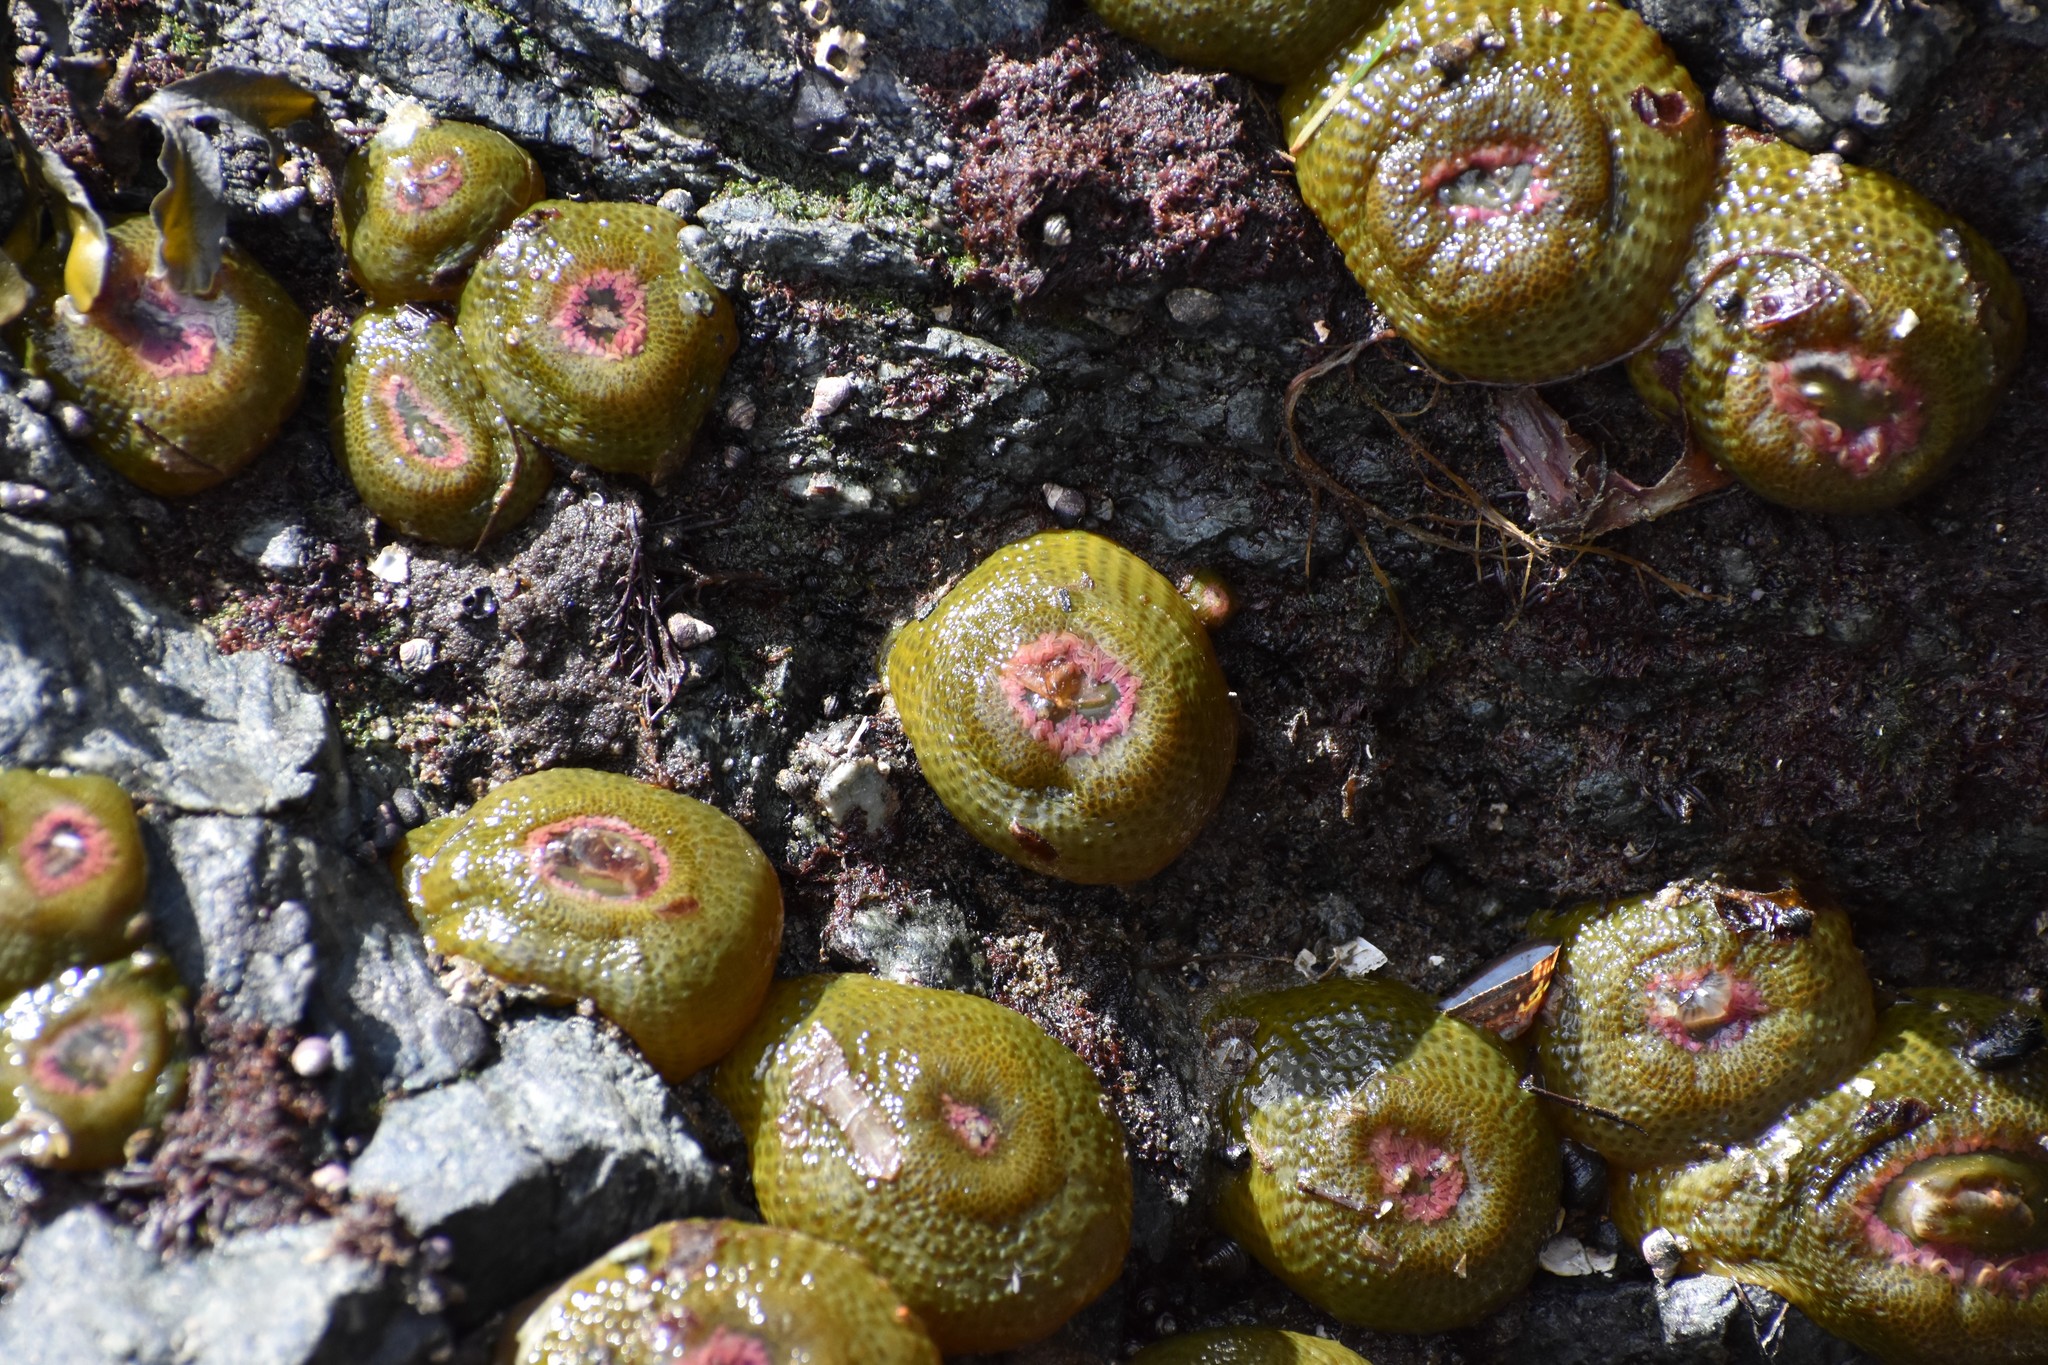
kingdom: Animalia
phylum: Cnidaria
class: Anthozoa
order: Actiniaria
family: Actiniidae
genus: Anthopleura
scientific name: Anthopleura elegantissima
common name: Clonal anemone
